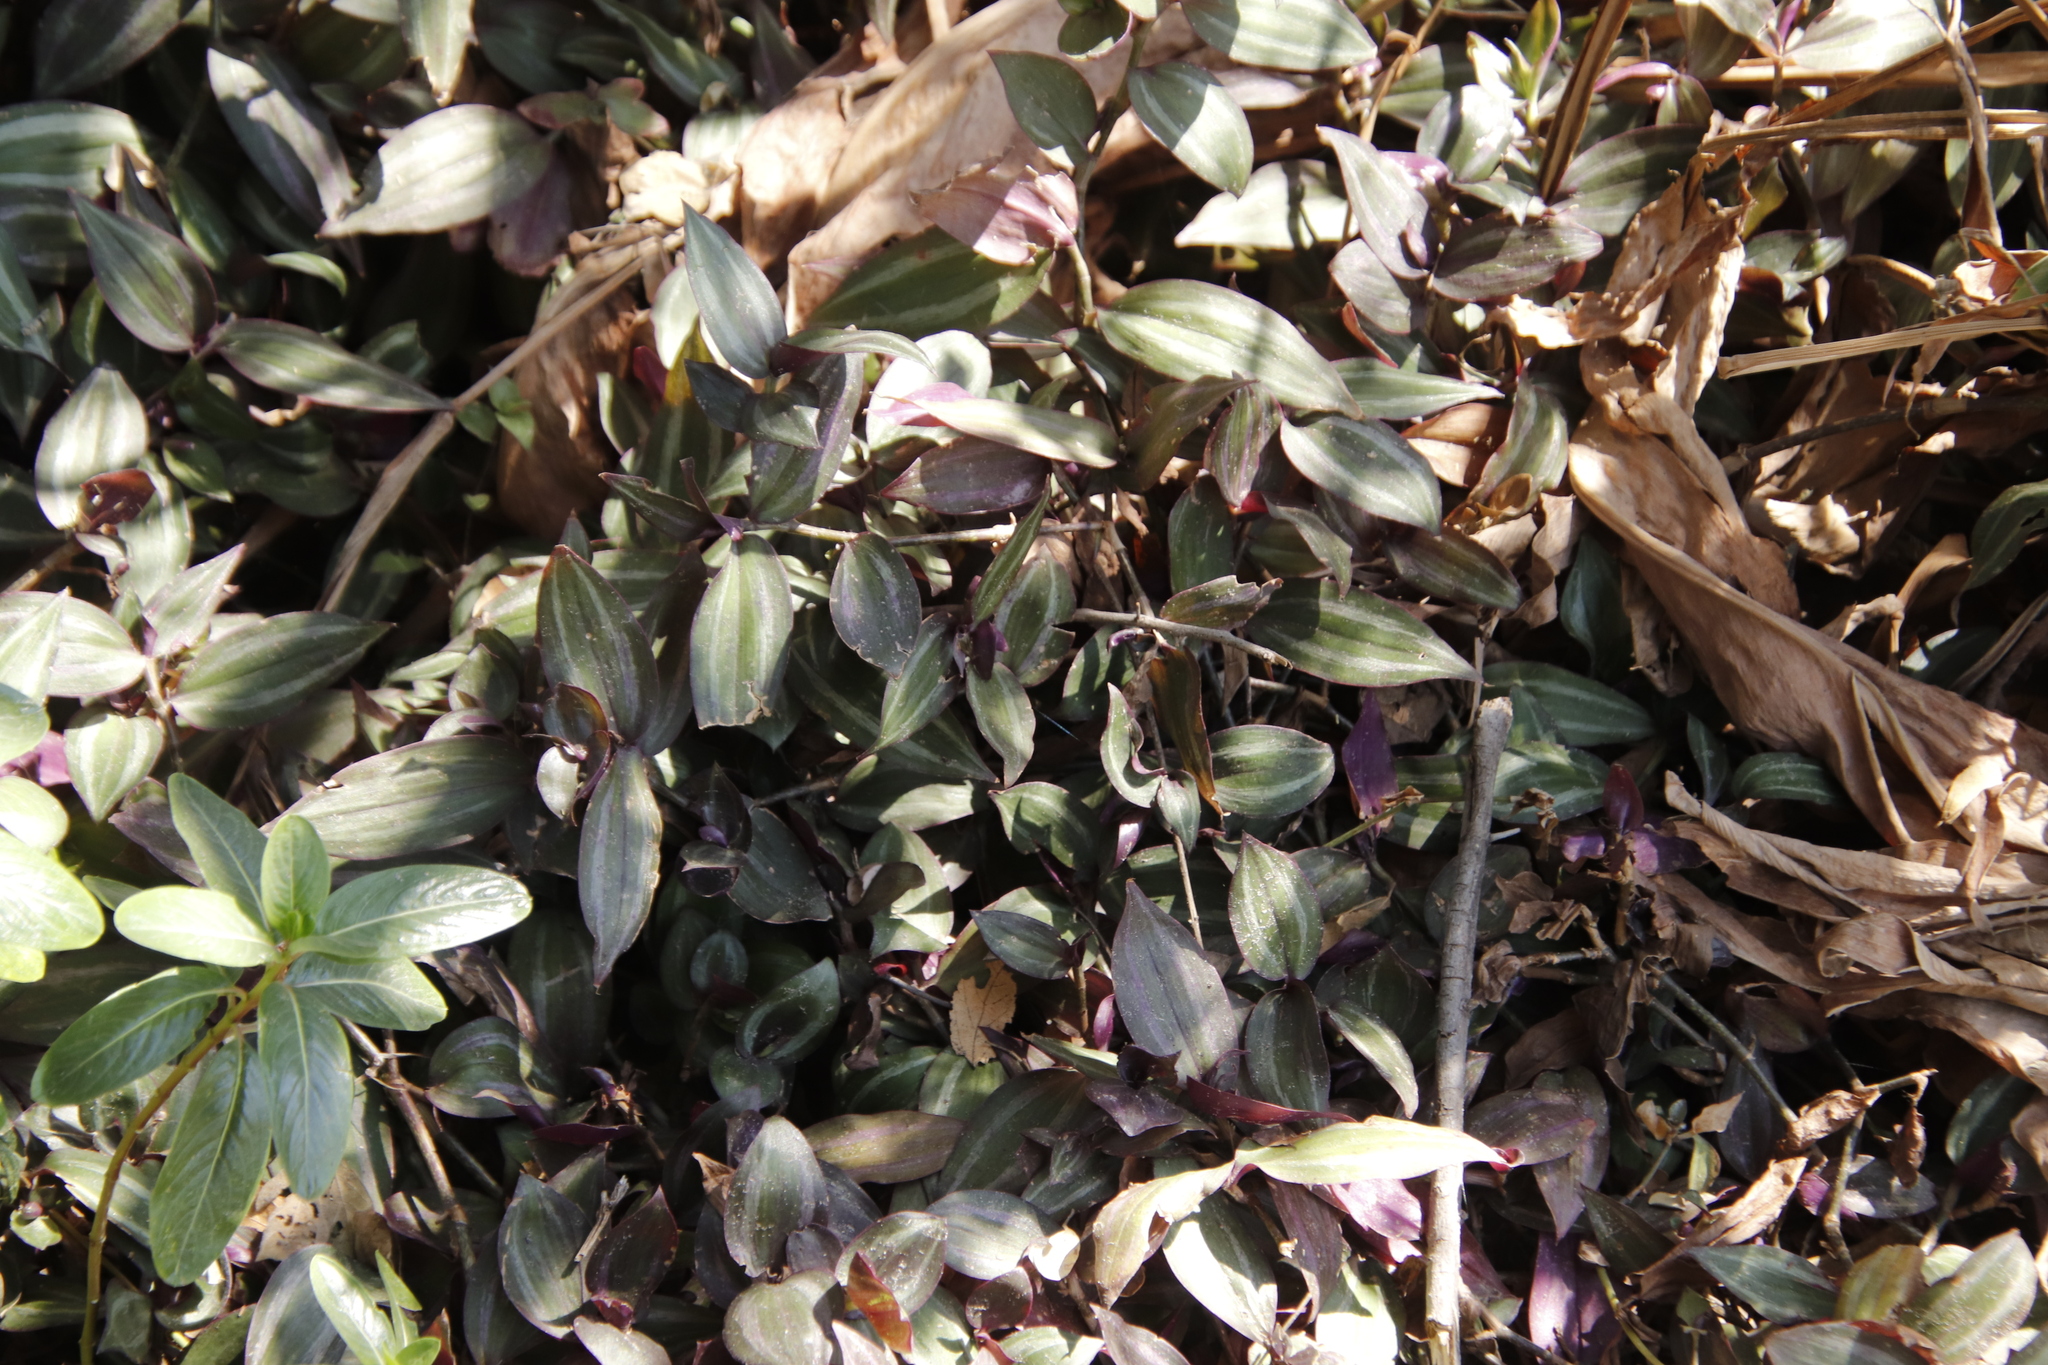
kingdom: Plantae
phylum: Tracheophyta
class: Liliopsida
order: Commelinales
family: Commelinaceae
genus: Tradescantia
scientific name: Tradescantia zebrina
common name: Inchplant
